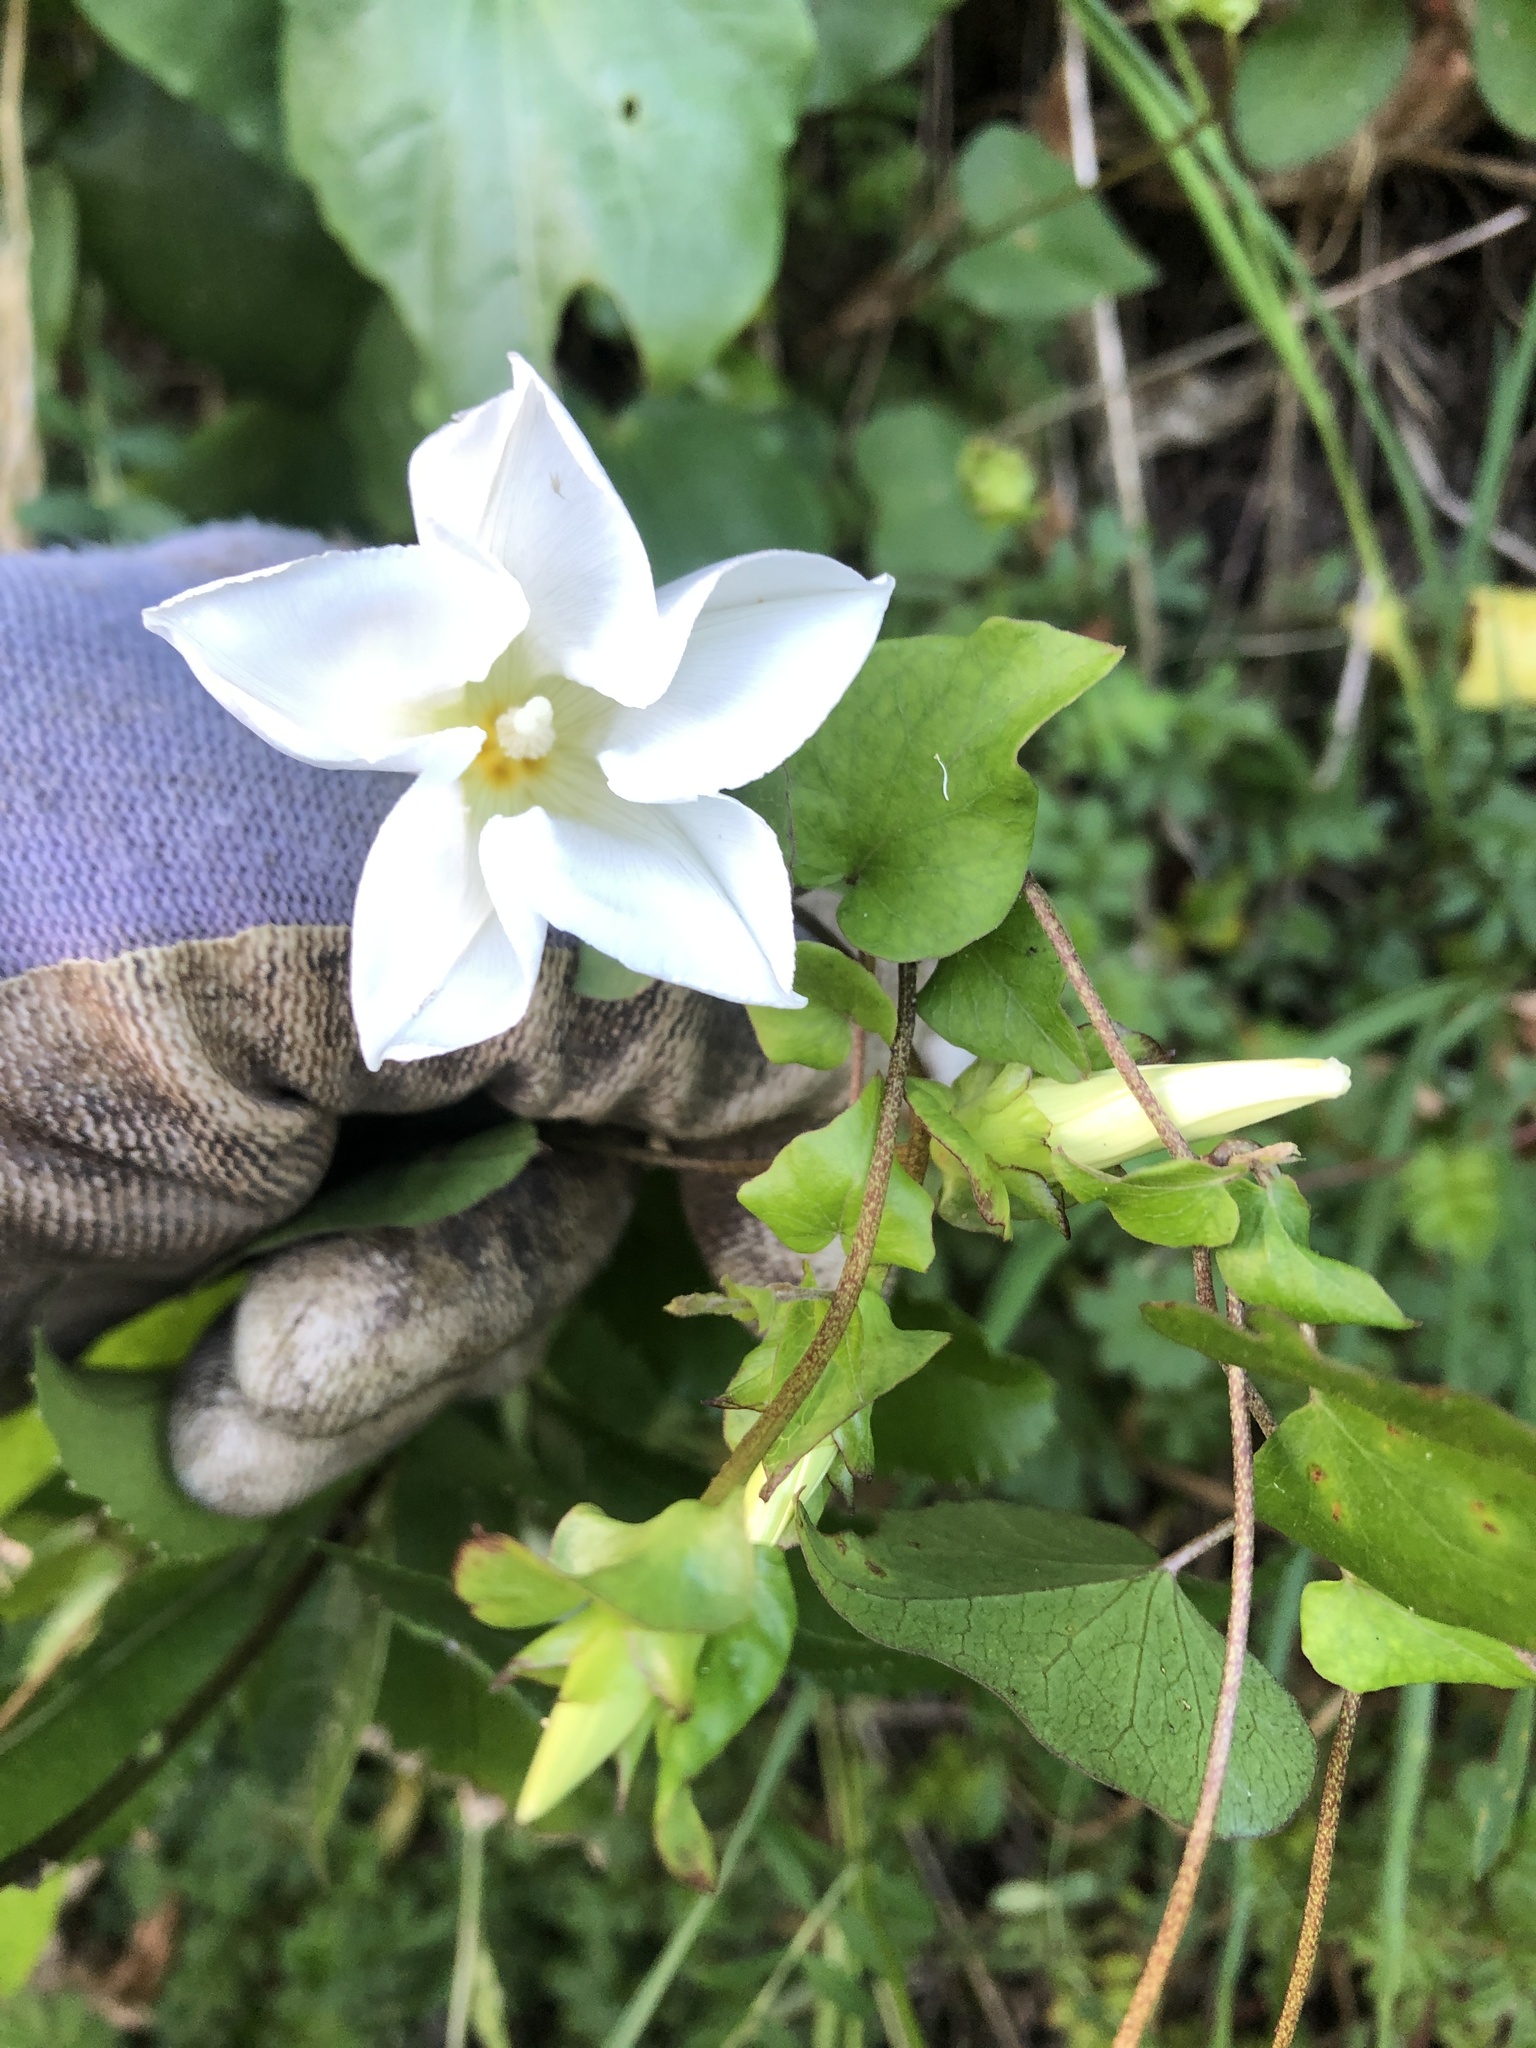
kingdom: Plantae
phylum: Tracheophyta
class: Magnoliopsida
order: Solanales
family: Convolvulaceae
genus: Calystegia
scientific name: Calystegia tuguriorum
